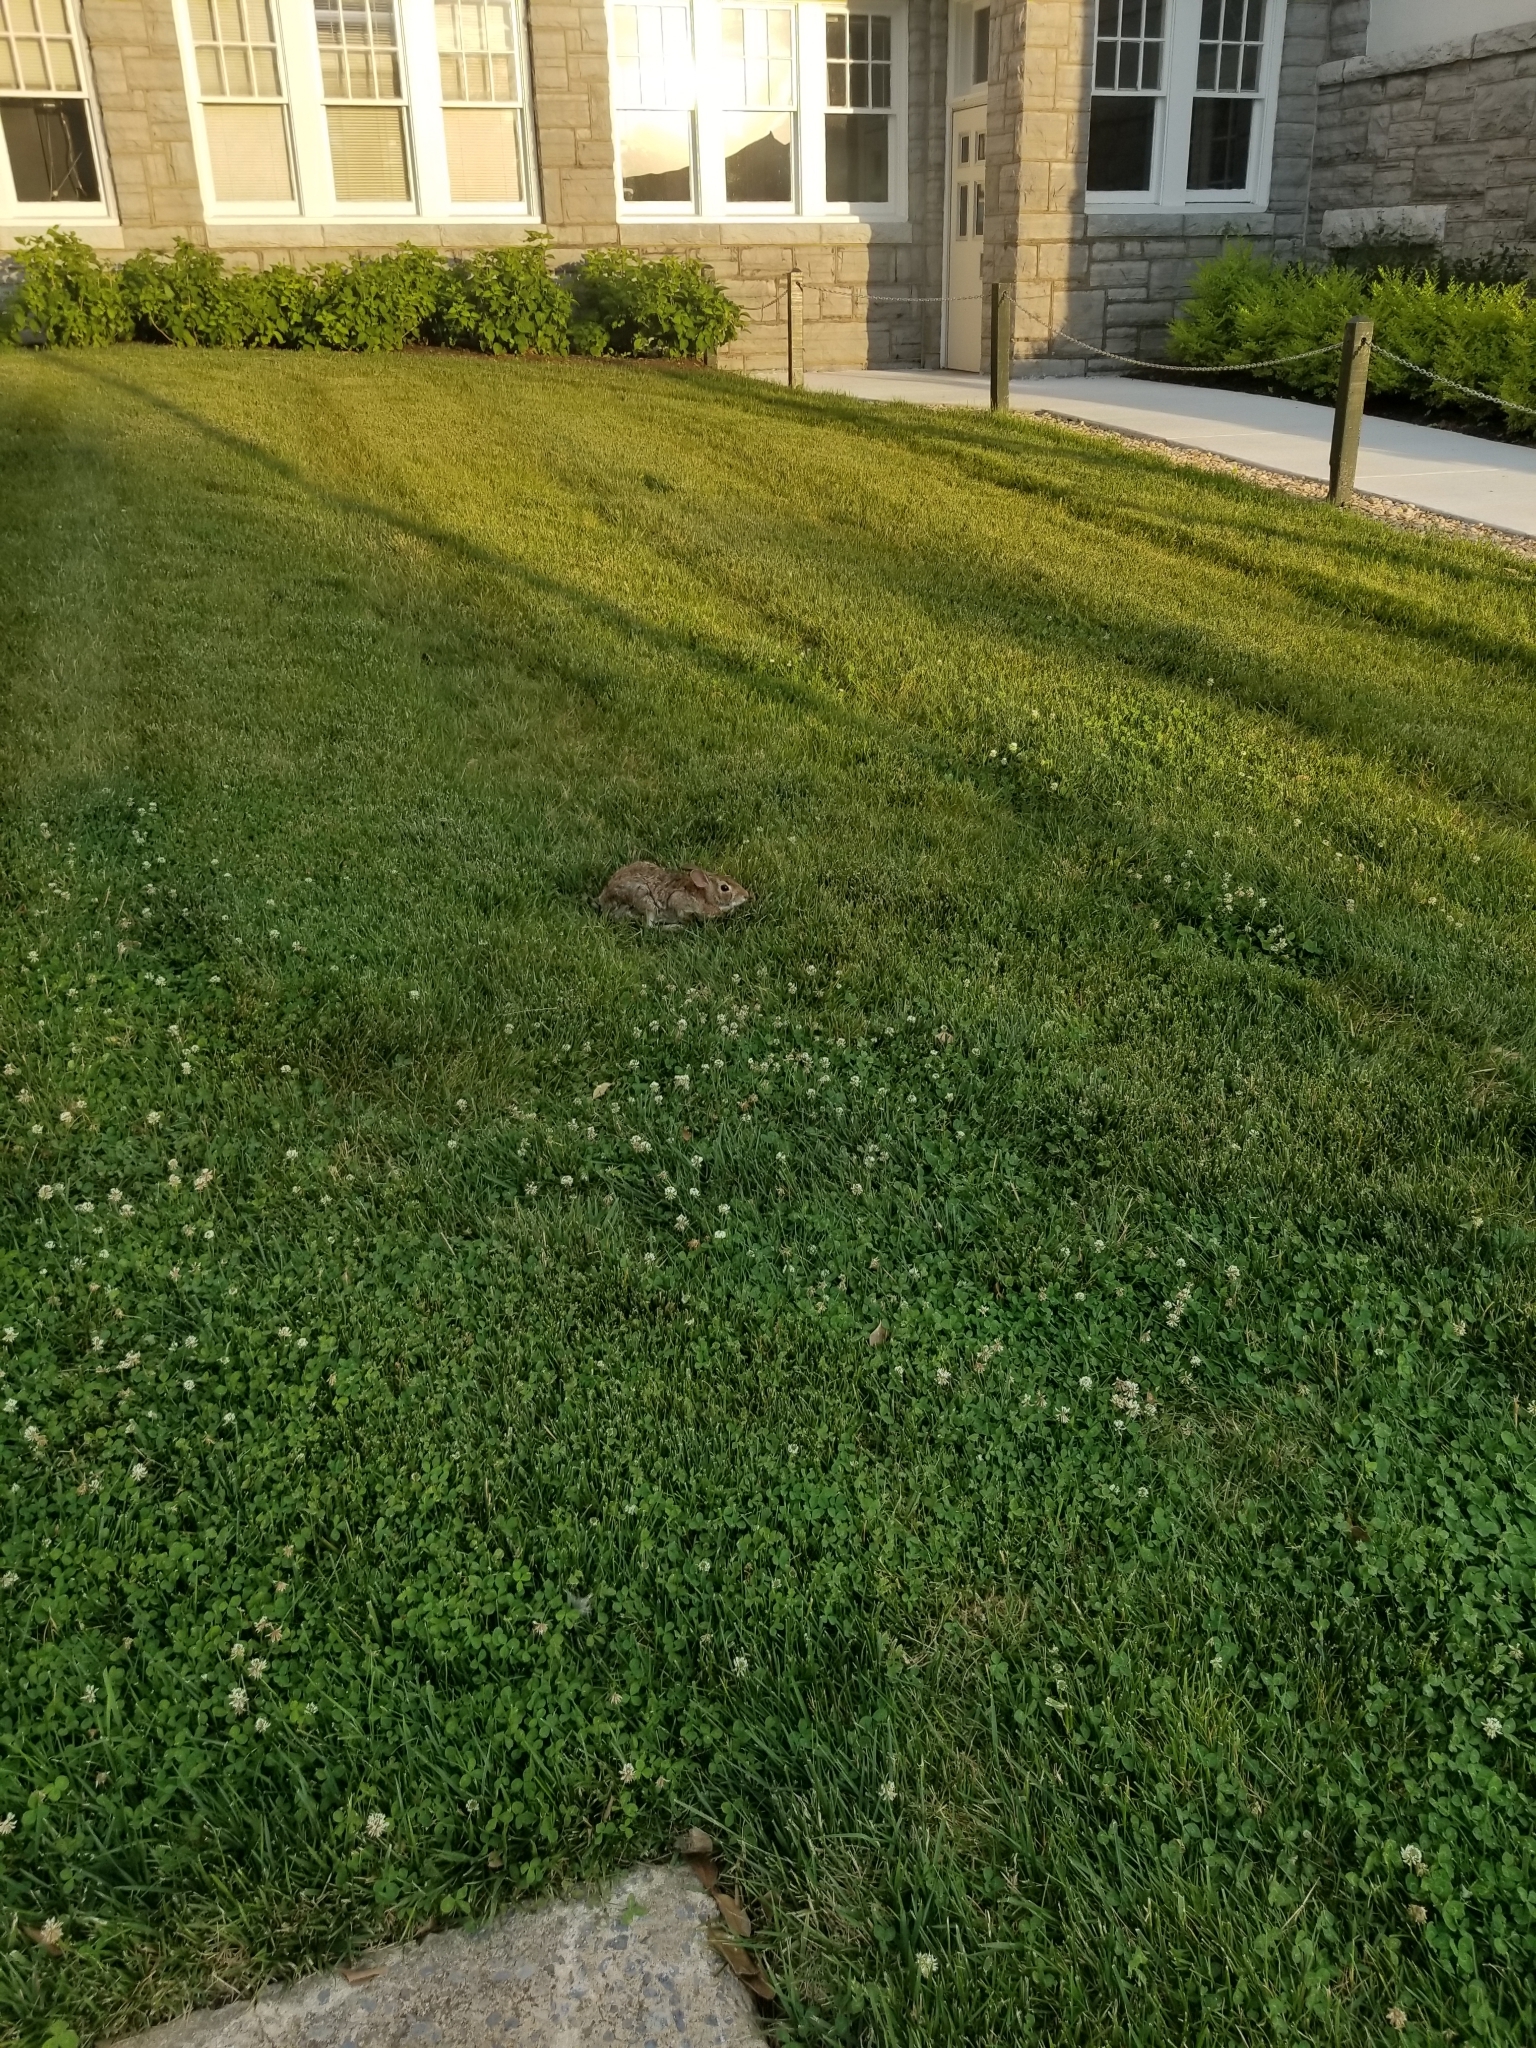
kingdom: Animalia
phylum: Chordata
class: Mammalia
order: Lagomorpha
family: Leporidae
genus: Sylvilagus
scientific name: Sylvilagus floridanus
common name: Eastern cottontail
